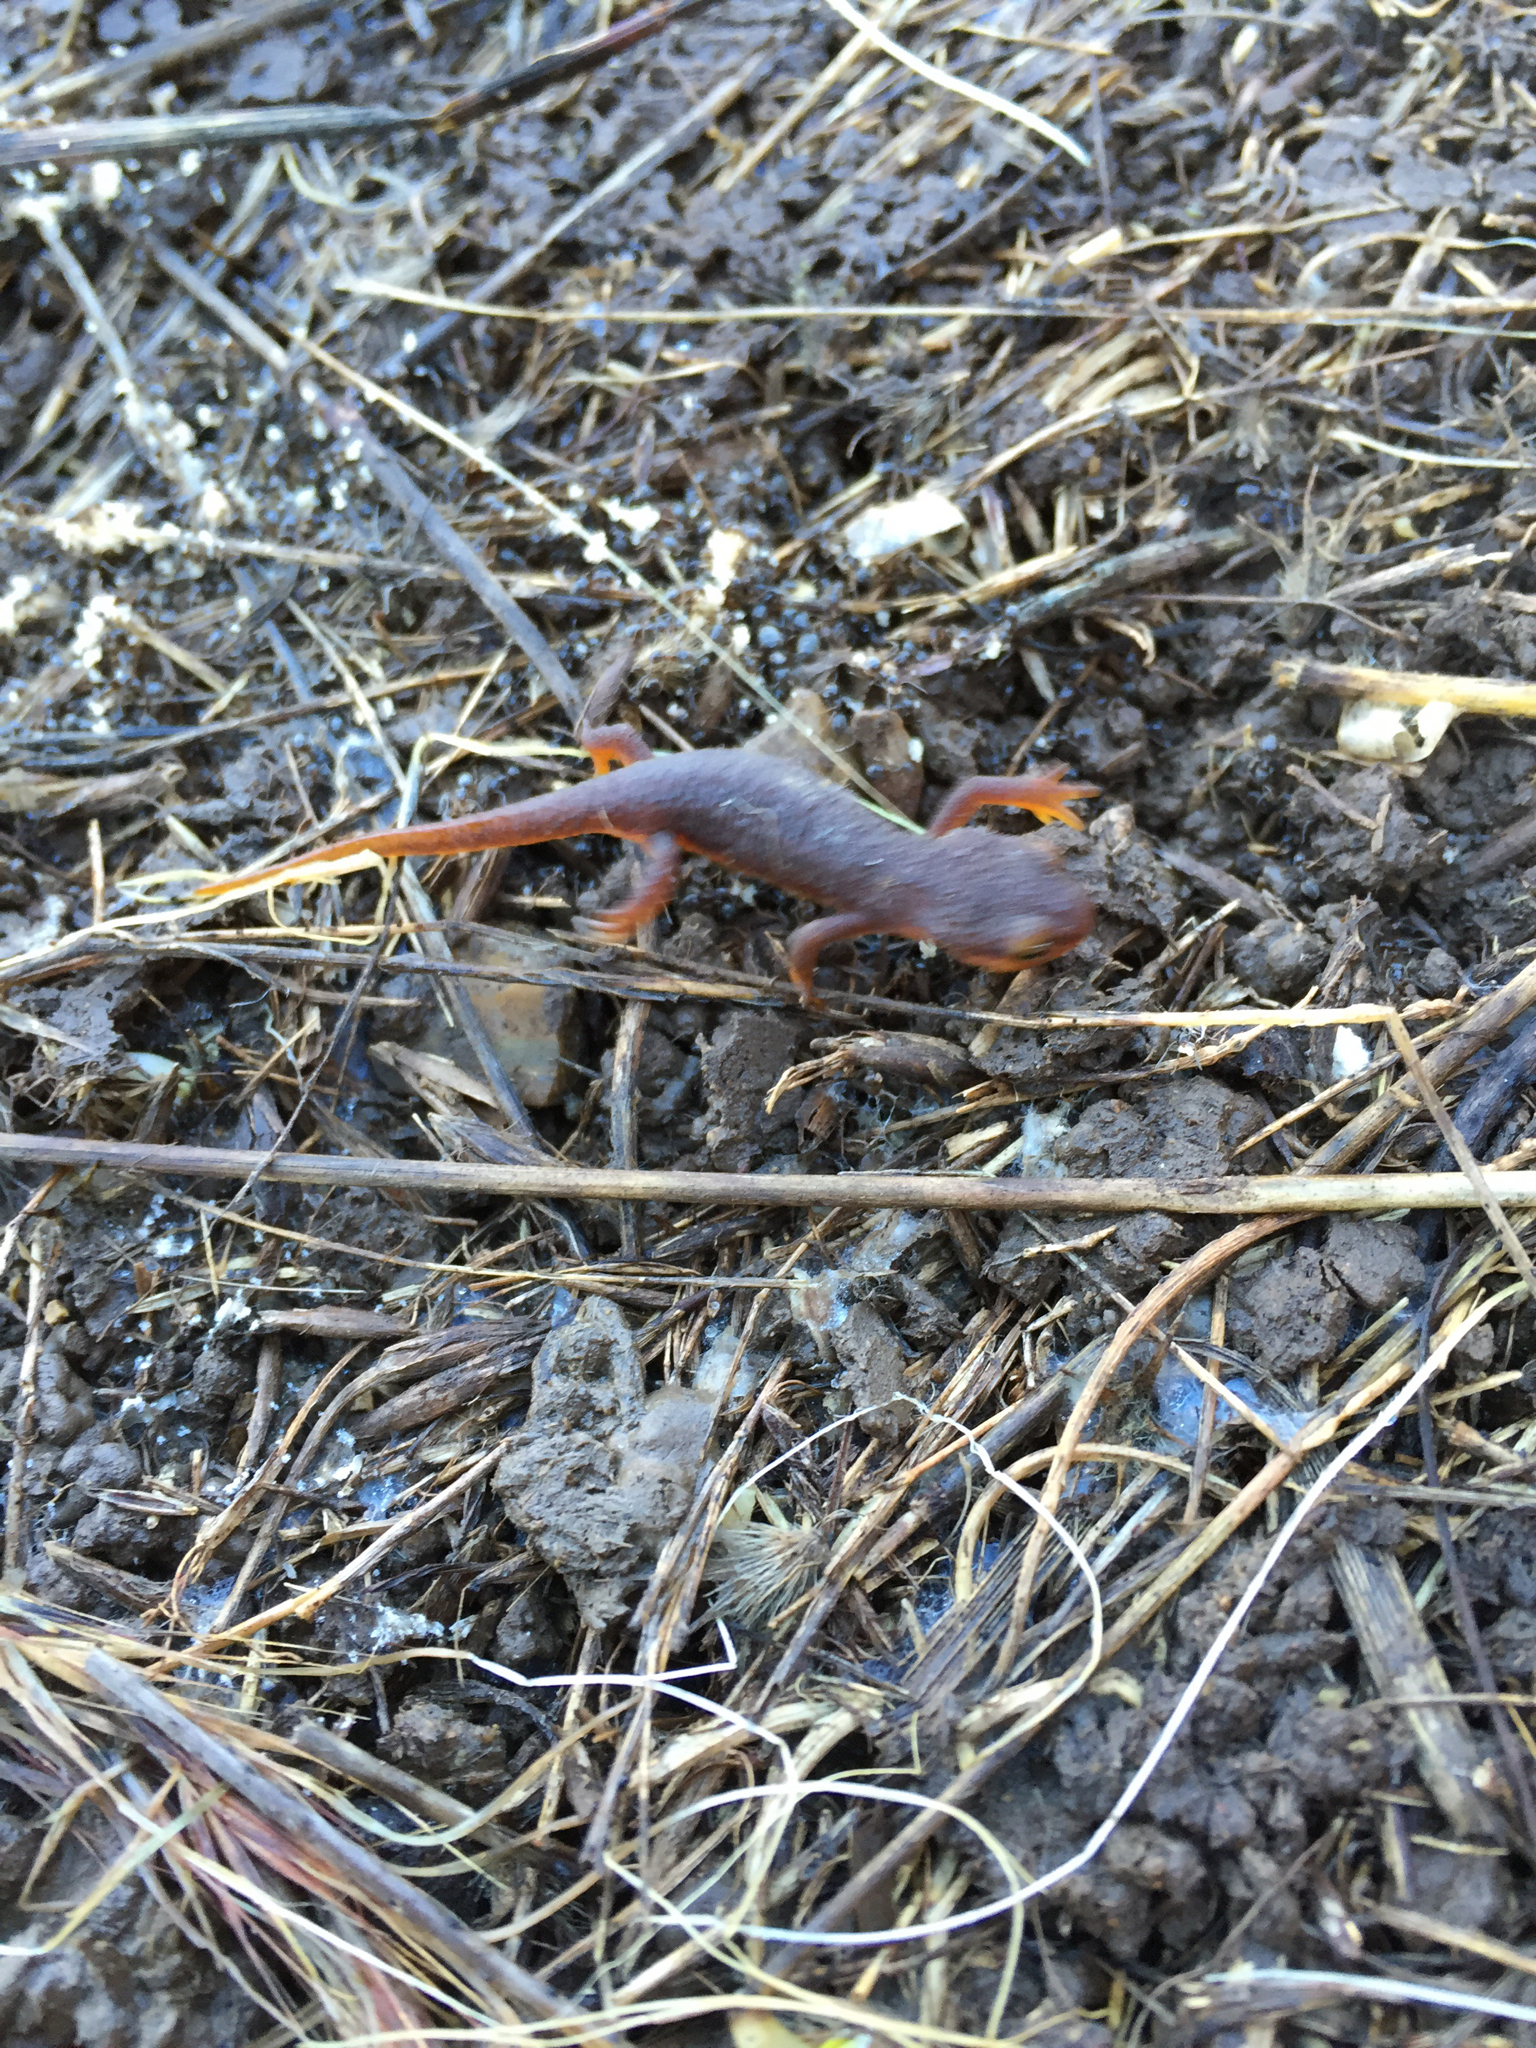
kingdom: Animalia
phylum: Chordata
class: Amphibia
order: Caudata
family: Salamandridae
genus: Taricha
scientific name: Taricha torosa
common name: California newt
